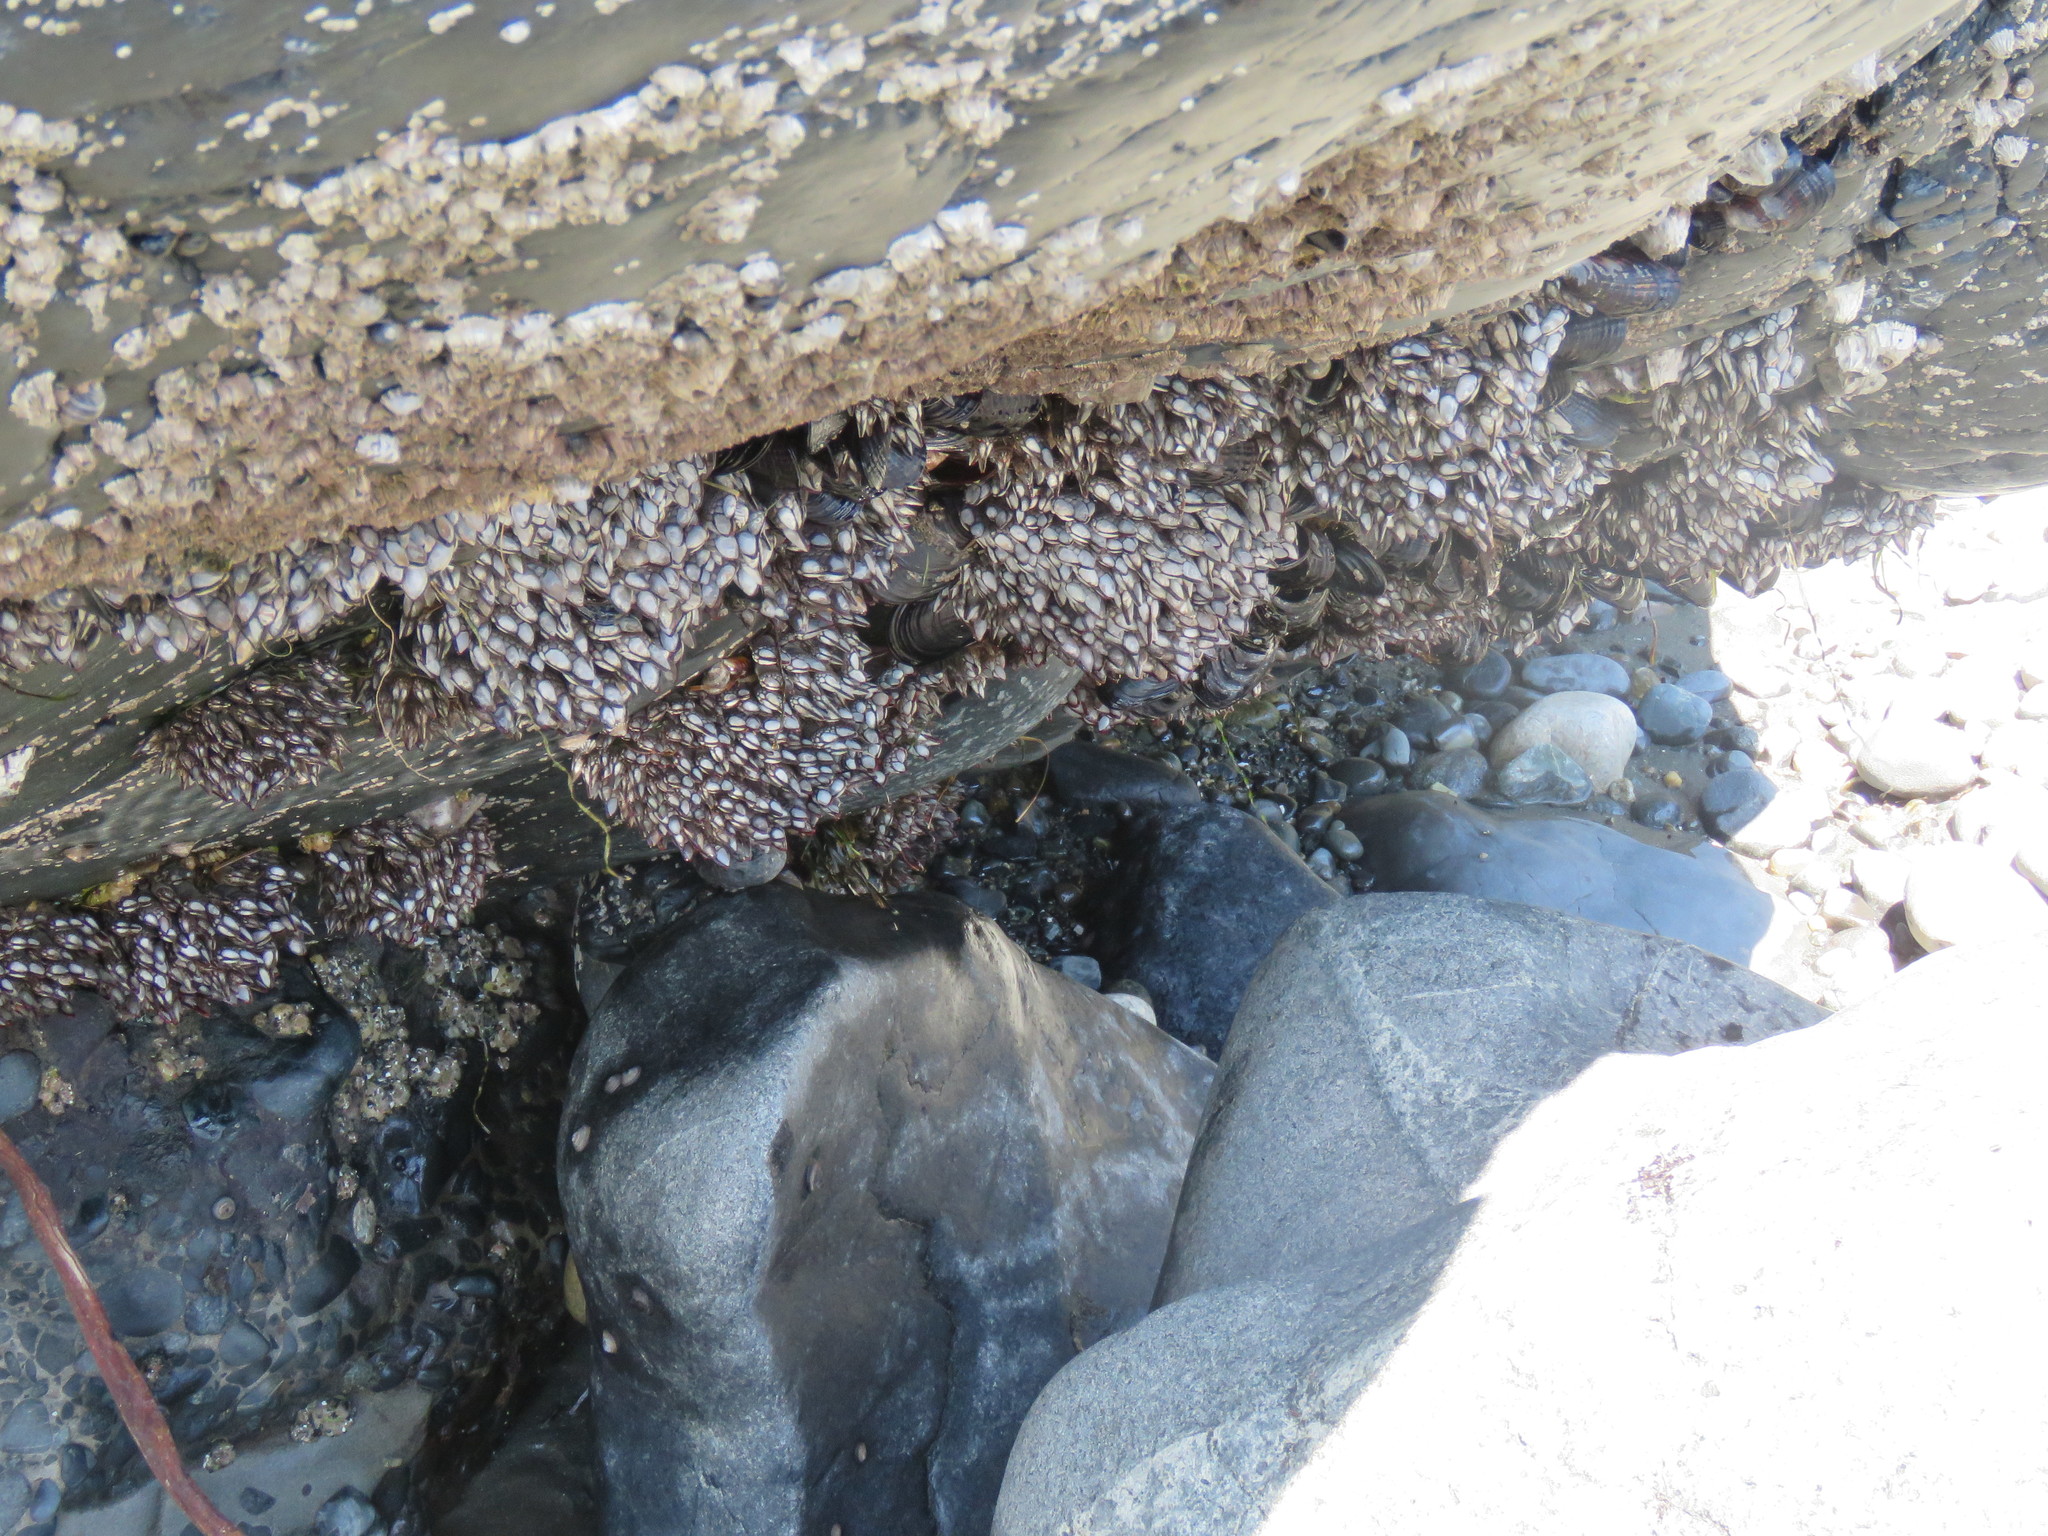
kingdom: Animalia
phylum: Arthropoda
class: Maxillopoda
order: Pedunculata
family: Pollicipedidae
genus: Pollicipes
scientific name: Pollicipes polymerus
